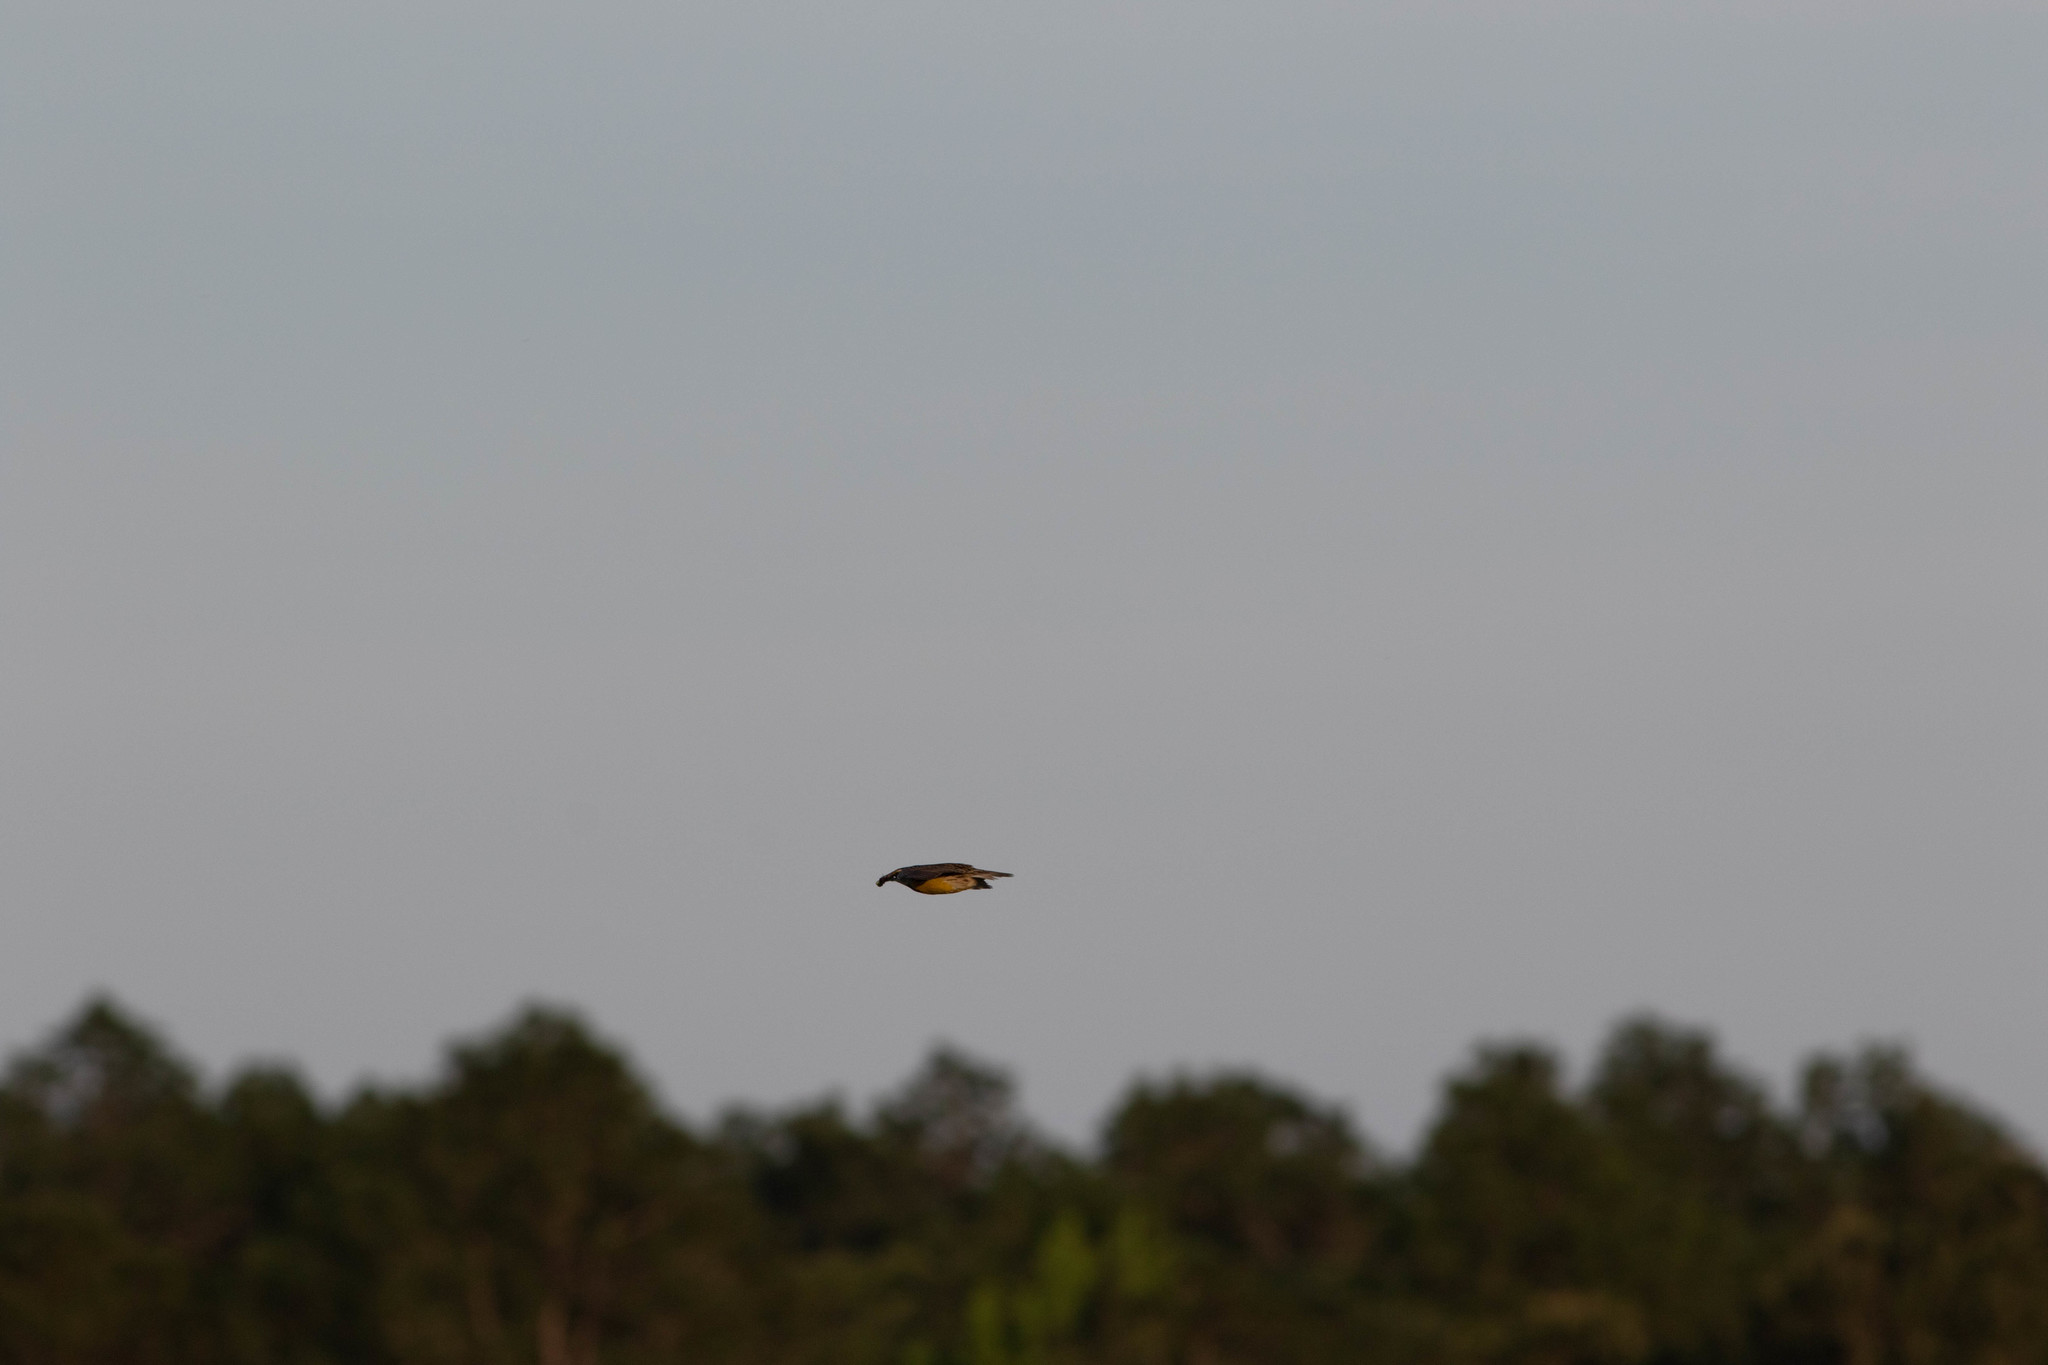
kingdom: Animalia
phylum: Chordata
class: Aves
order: Passeriformes
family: Icteridae
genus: Sturnella
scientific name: Sturnella magna
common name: Eastern meadowlark
